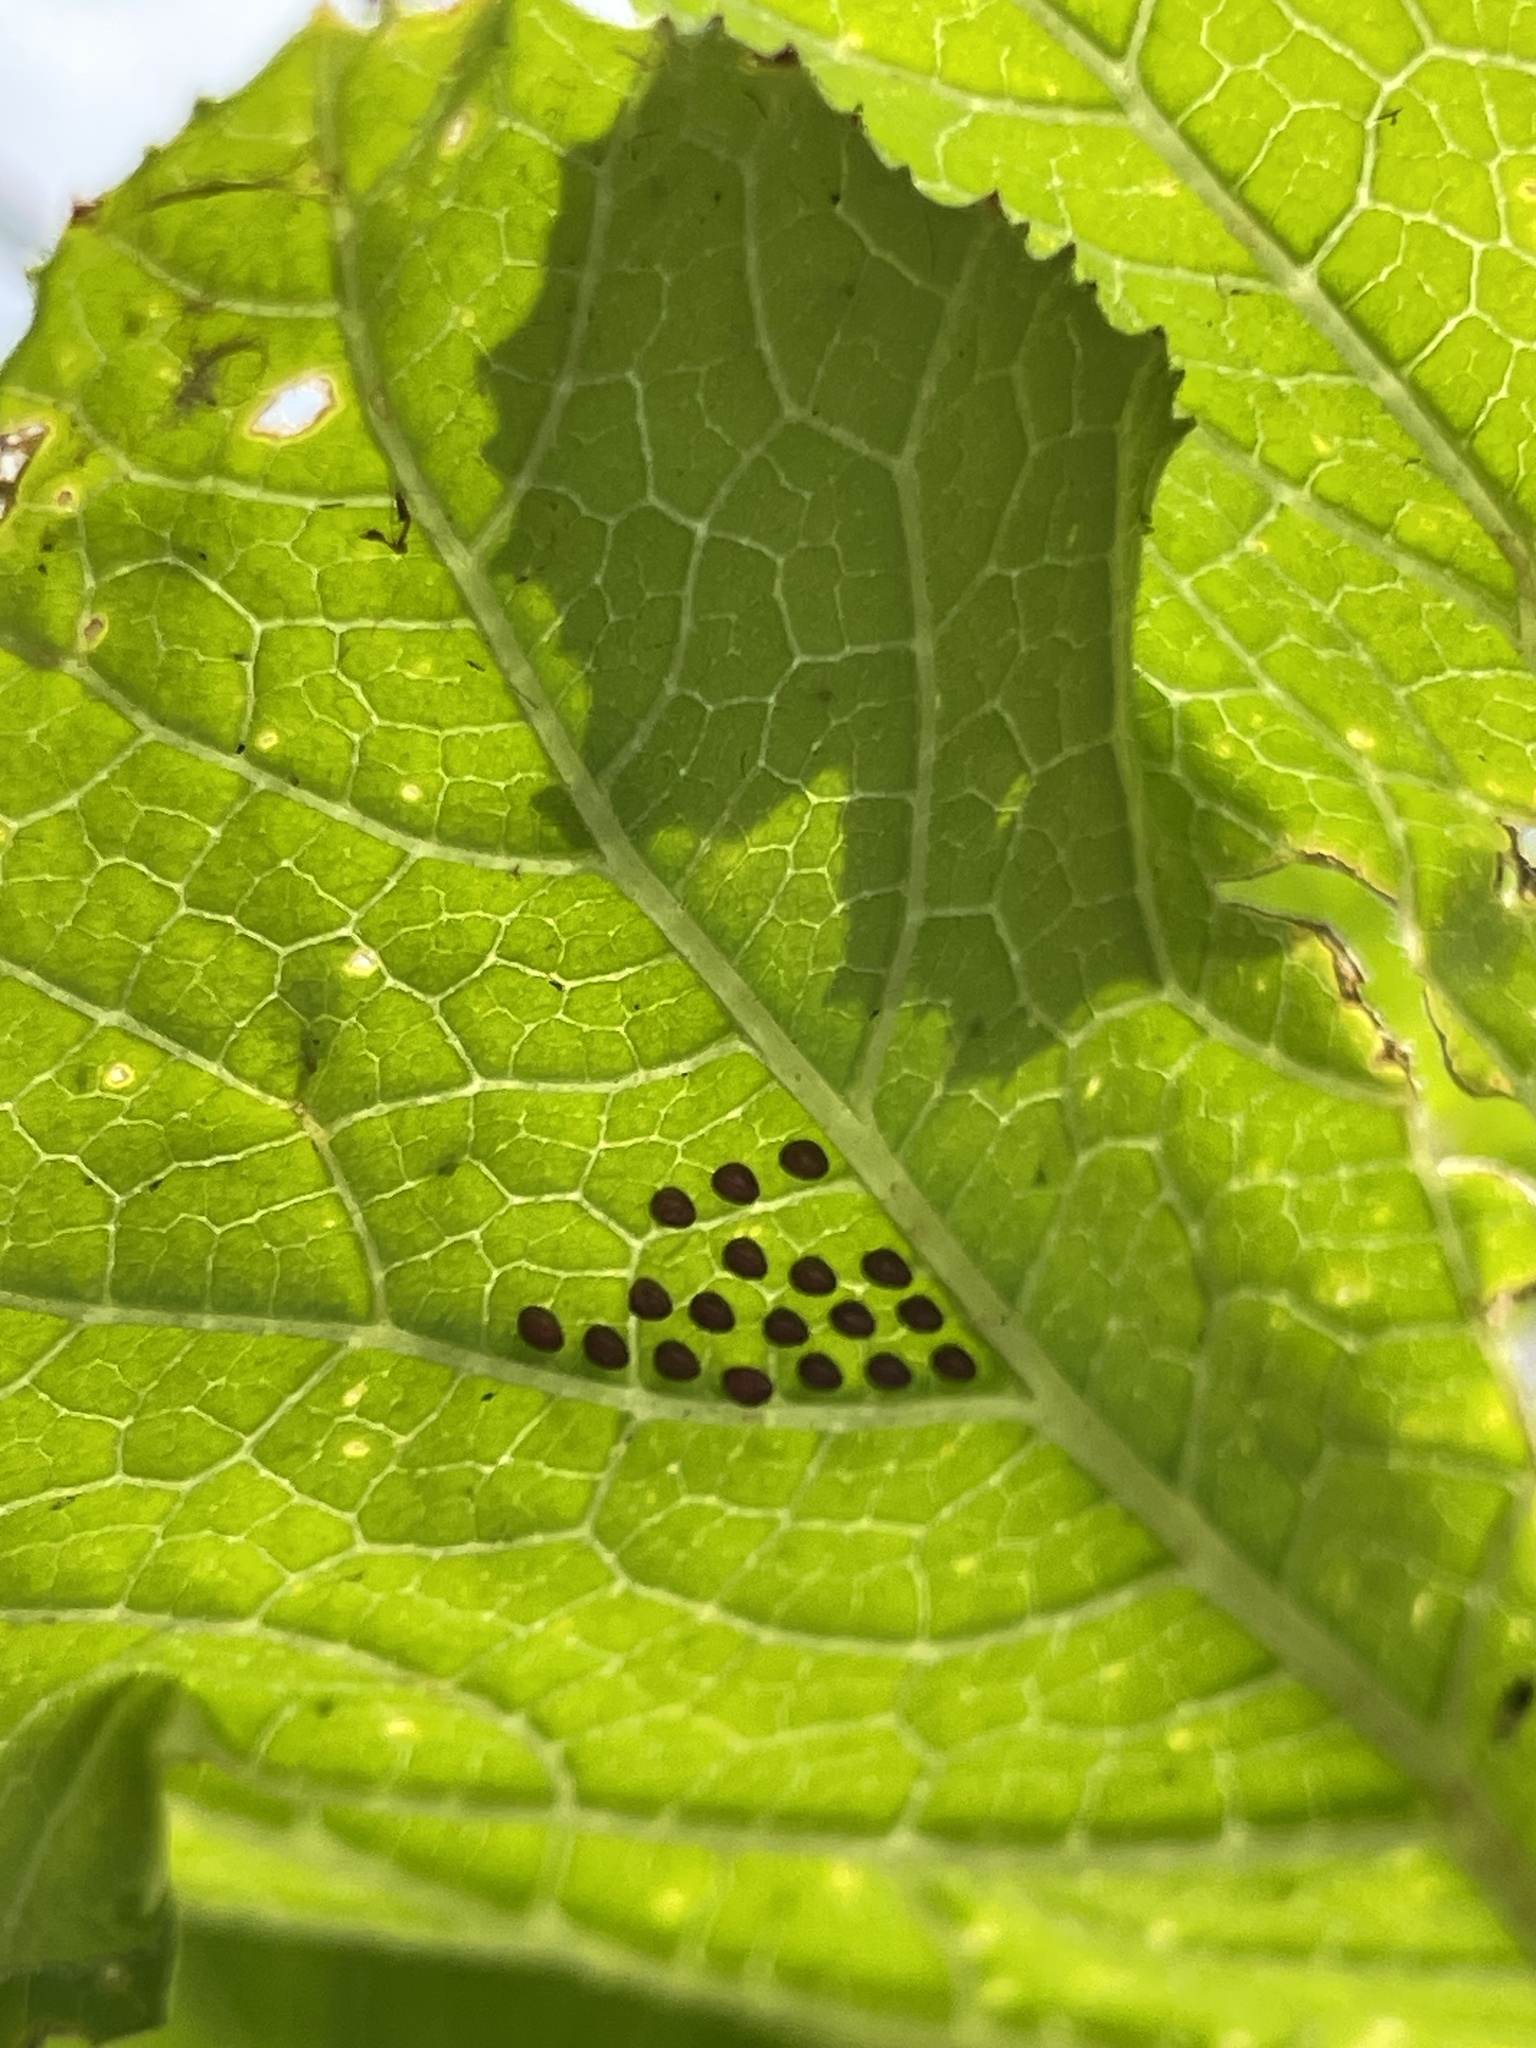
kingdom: Animalia
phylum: Arthropoda
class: Insecta
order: Hemiptera
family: Coreidae
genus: Anasa
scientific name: Anasa tristis
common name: Squash bug
